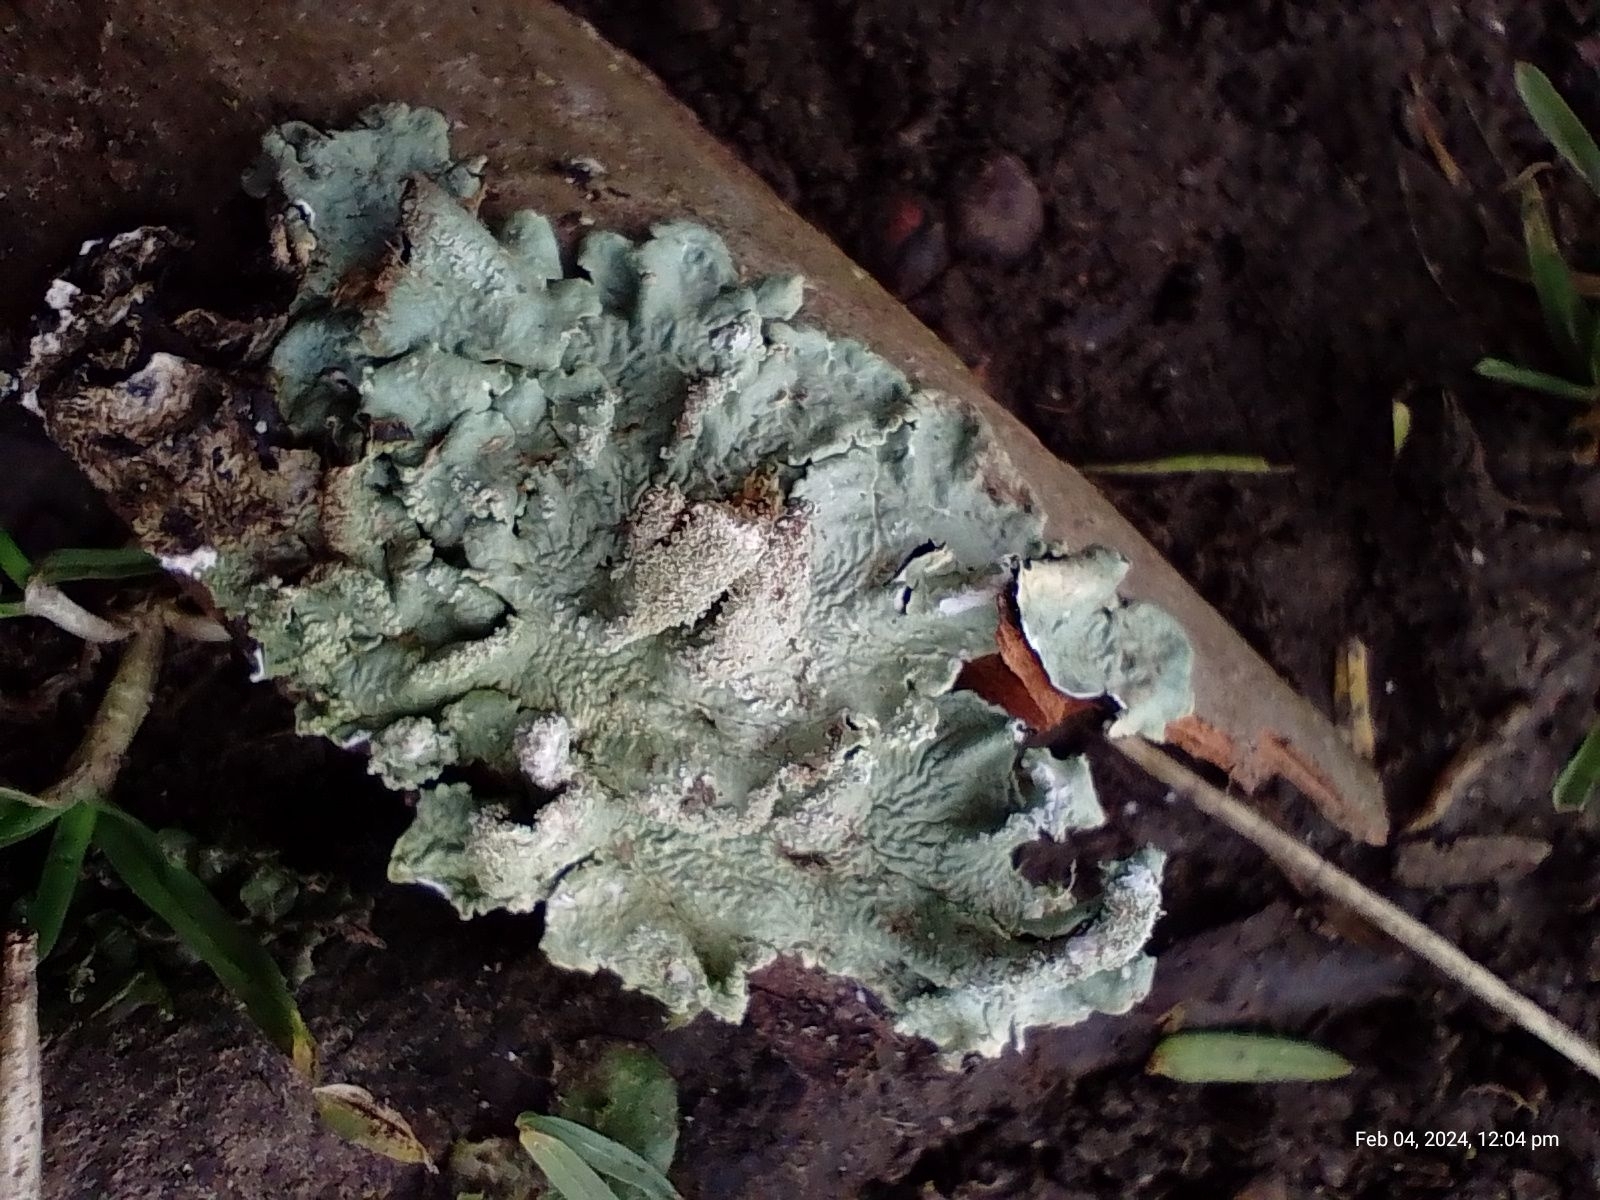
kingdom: Fungi
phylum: Ascomycota
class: Lecanoromycetes
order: Lecanorales
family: Parmeliaceae
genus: Flavoparmelia
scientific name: Flavoparmelia caperata
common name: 40-mile per hour lichen
